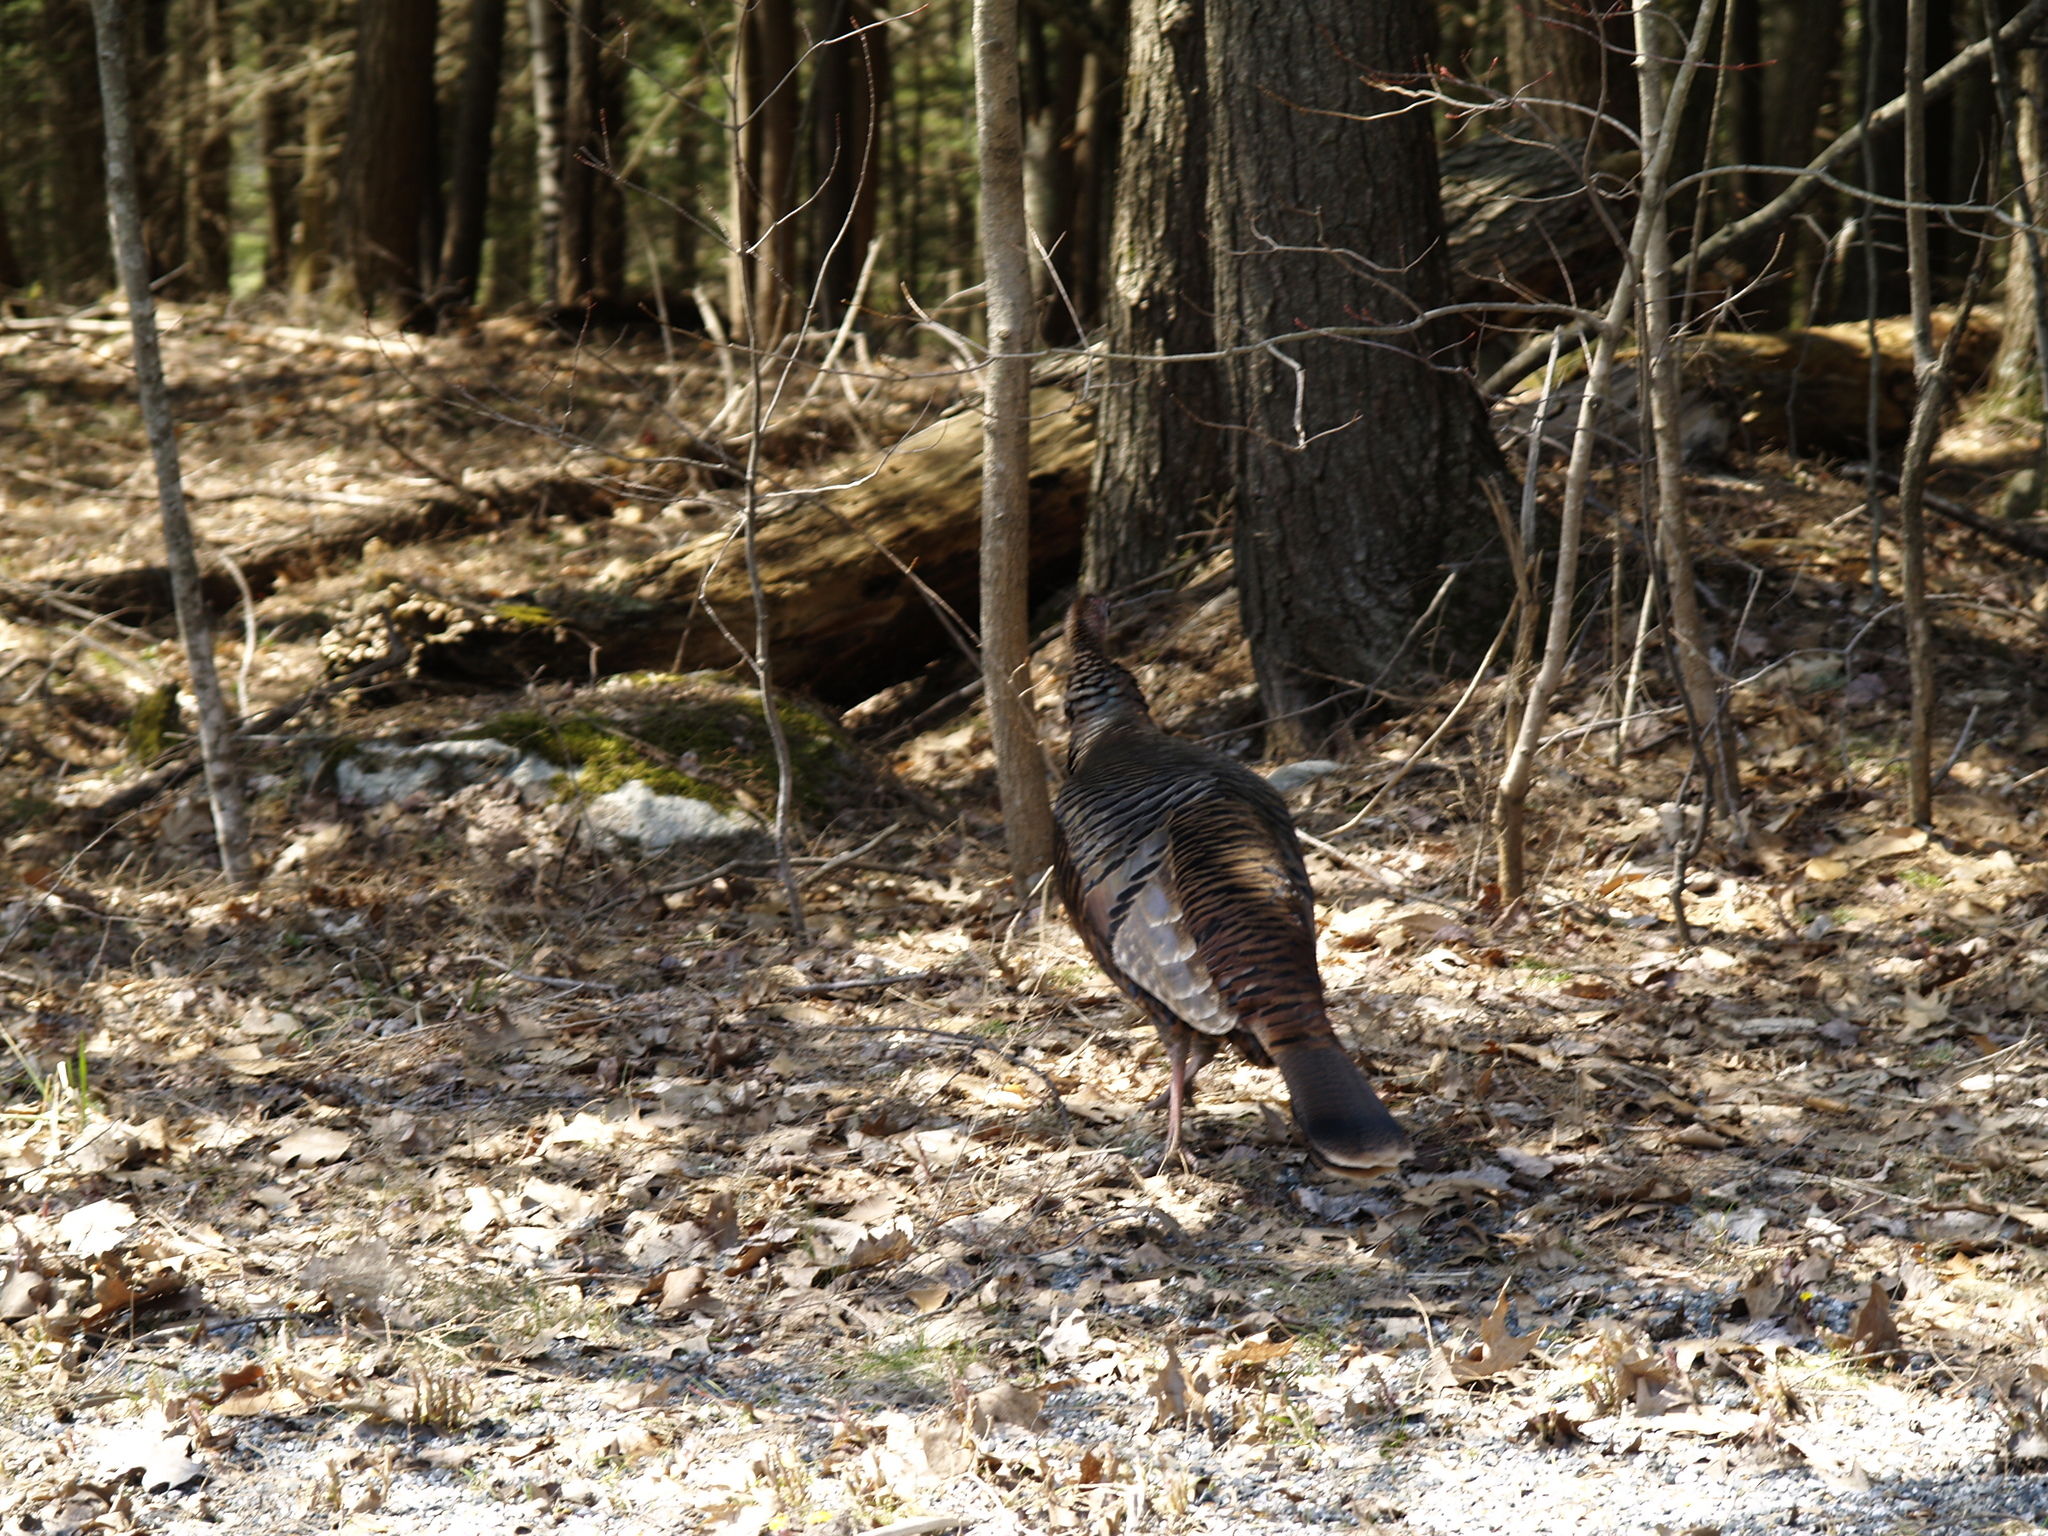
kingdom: Animalia
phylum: Chordata
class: Aves
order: Galliformes
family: Phasianidae
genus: Meleagris
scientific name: Meleagris gallopavo
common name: Wild turkey
